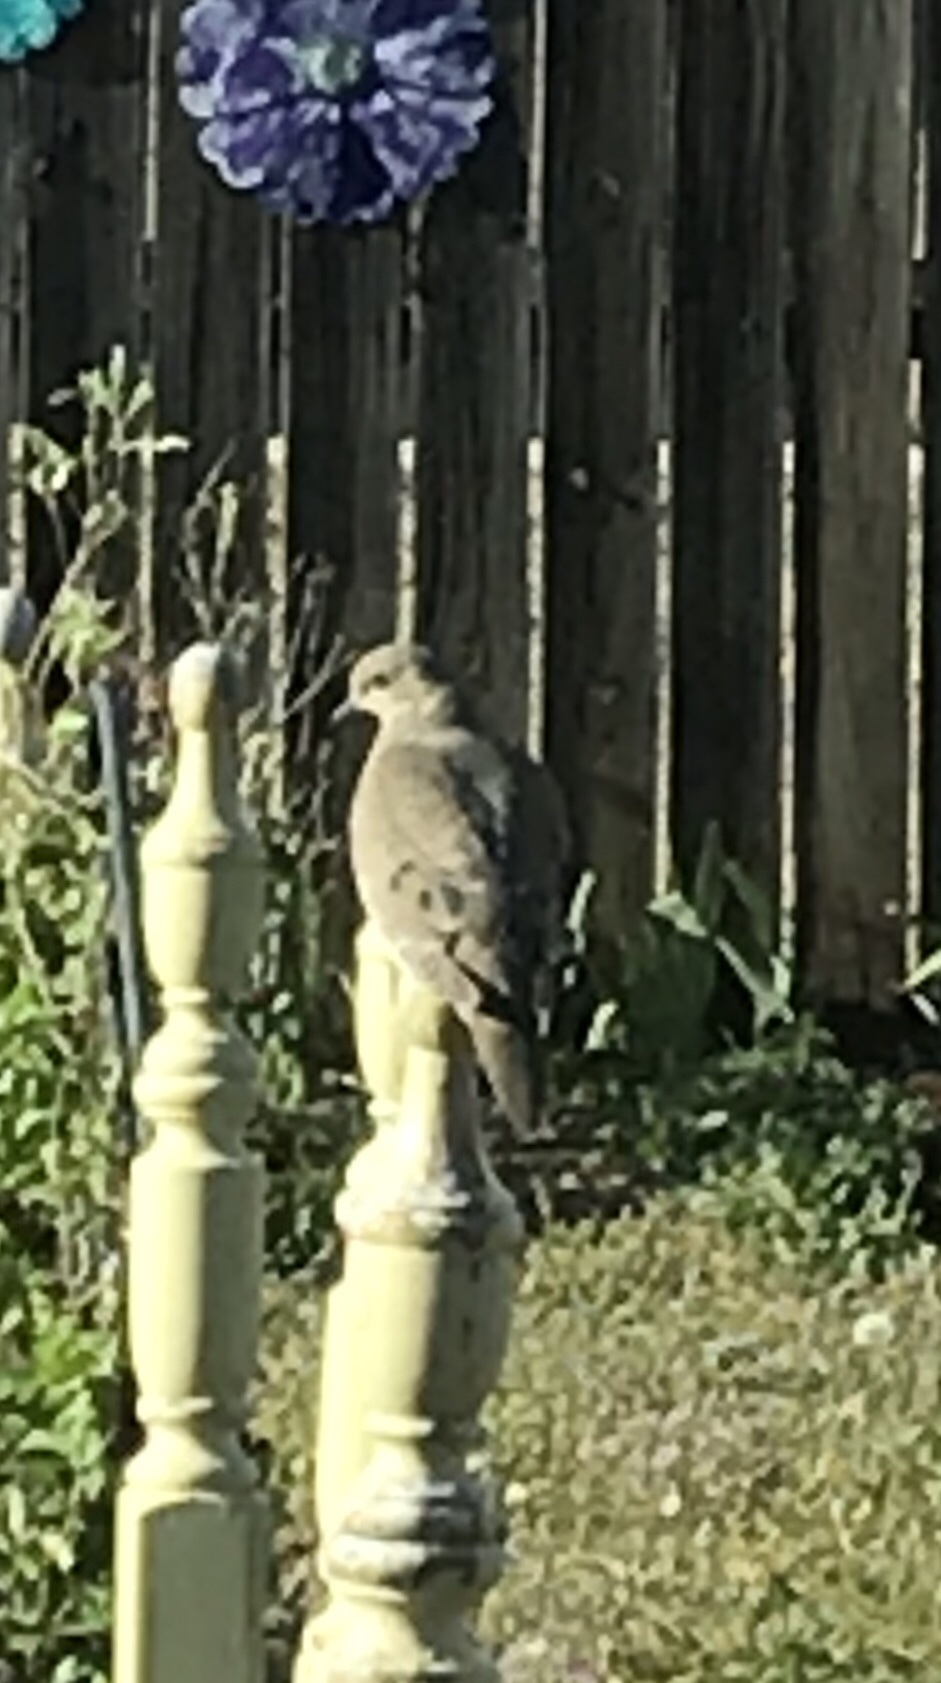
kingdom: Animalia
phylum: Chordata
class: Aves
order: Columbiformes
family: Columbidae
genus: Zenaida
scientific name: Zenaida macroura
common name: Mourning dove
